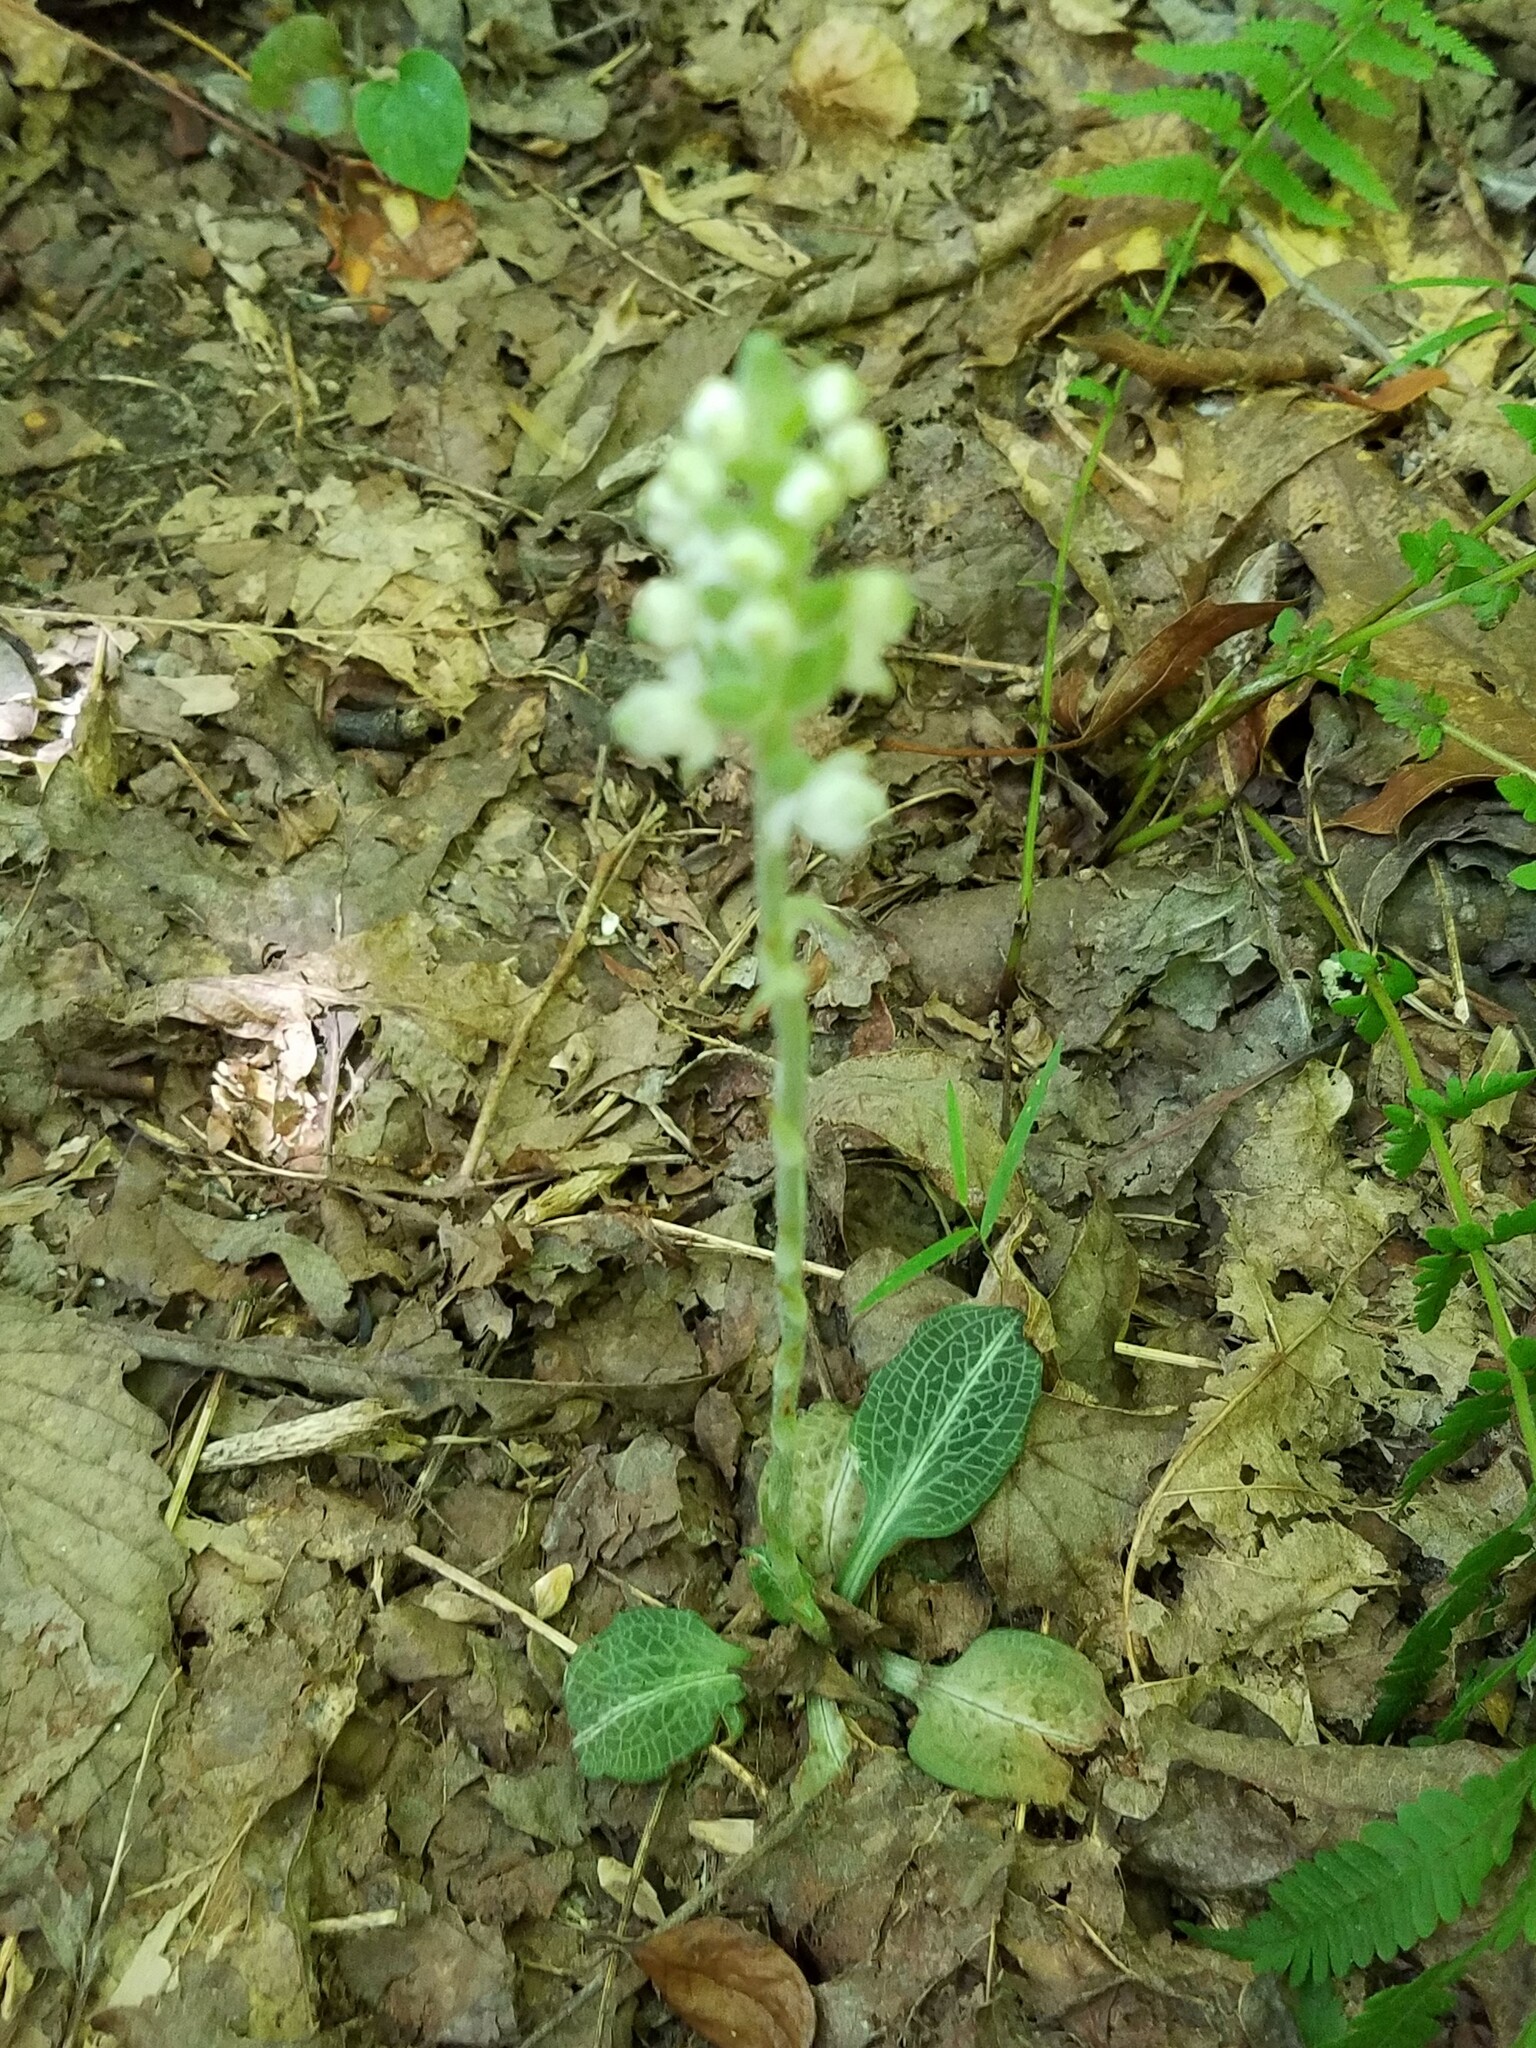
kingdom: Plantae
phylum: Tracheophyta
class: Liliopsida
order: Asparagales
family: Orchidaceae
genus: Goodyera
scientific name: Goodyera pubescens
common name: Downy rattlesnake-plantain
